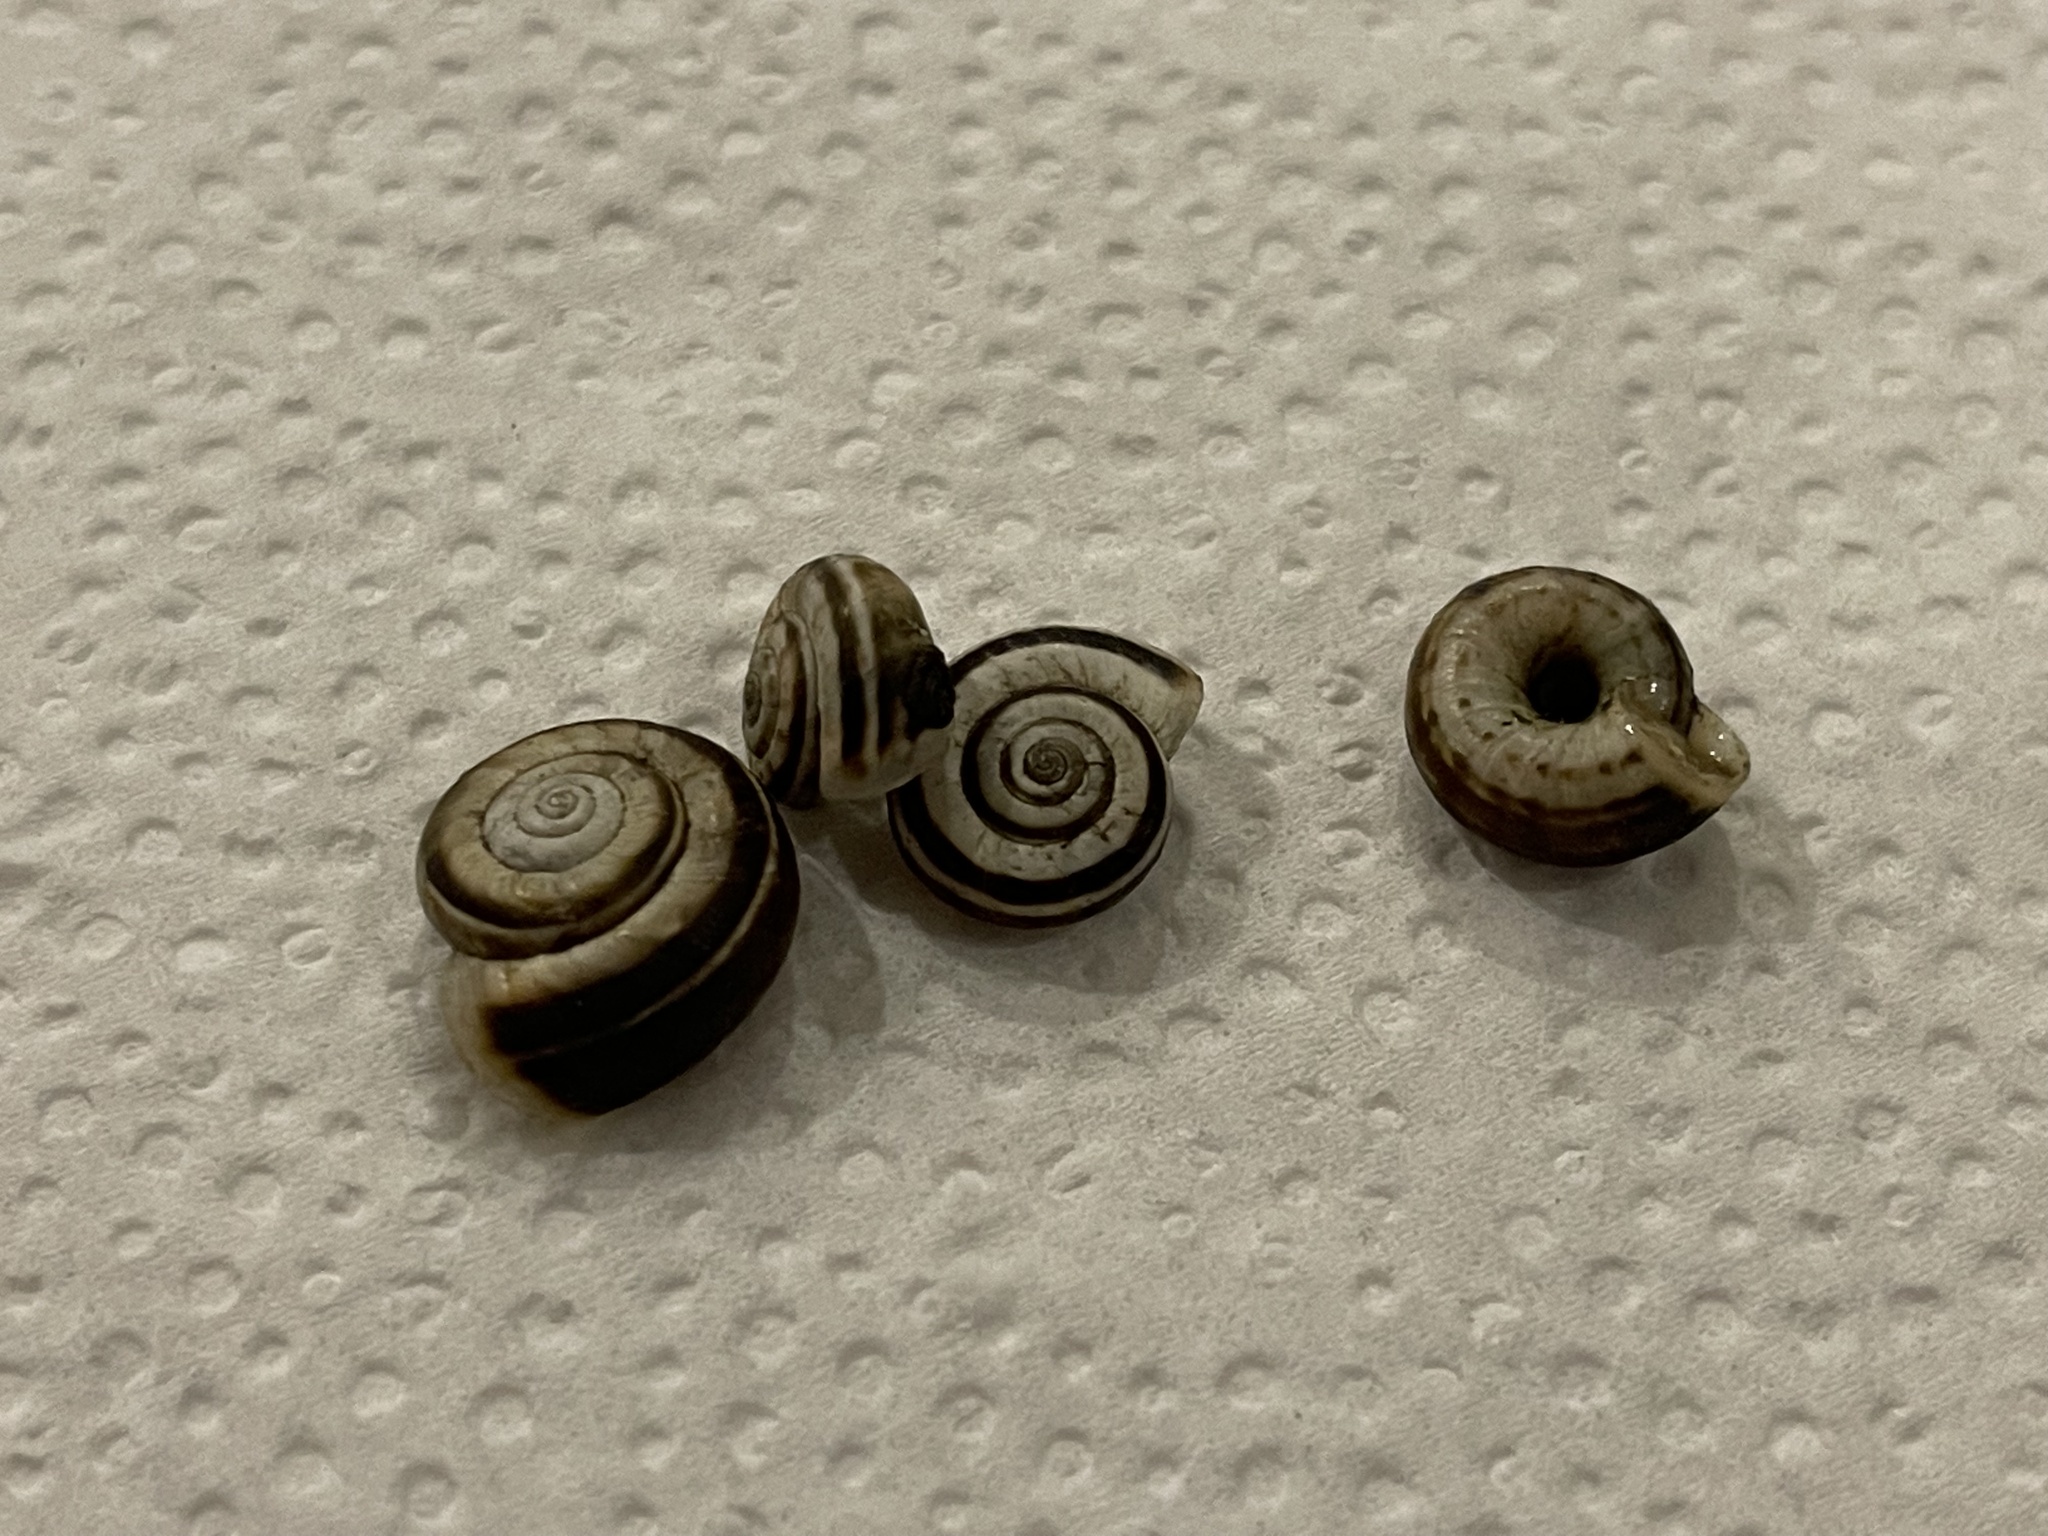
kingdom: Animalia
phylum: Mollusca
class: Gastropoda
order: Stylommatophora
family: Geomitridae
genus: Xerolenta
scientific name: Xerolenta obvia
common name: White heath snail
